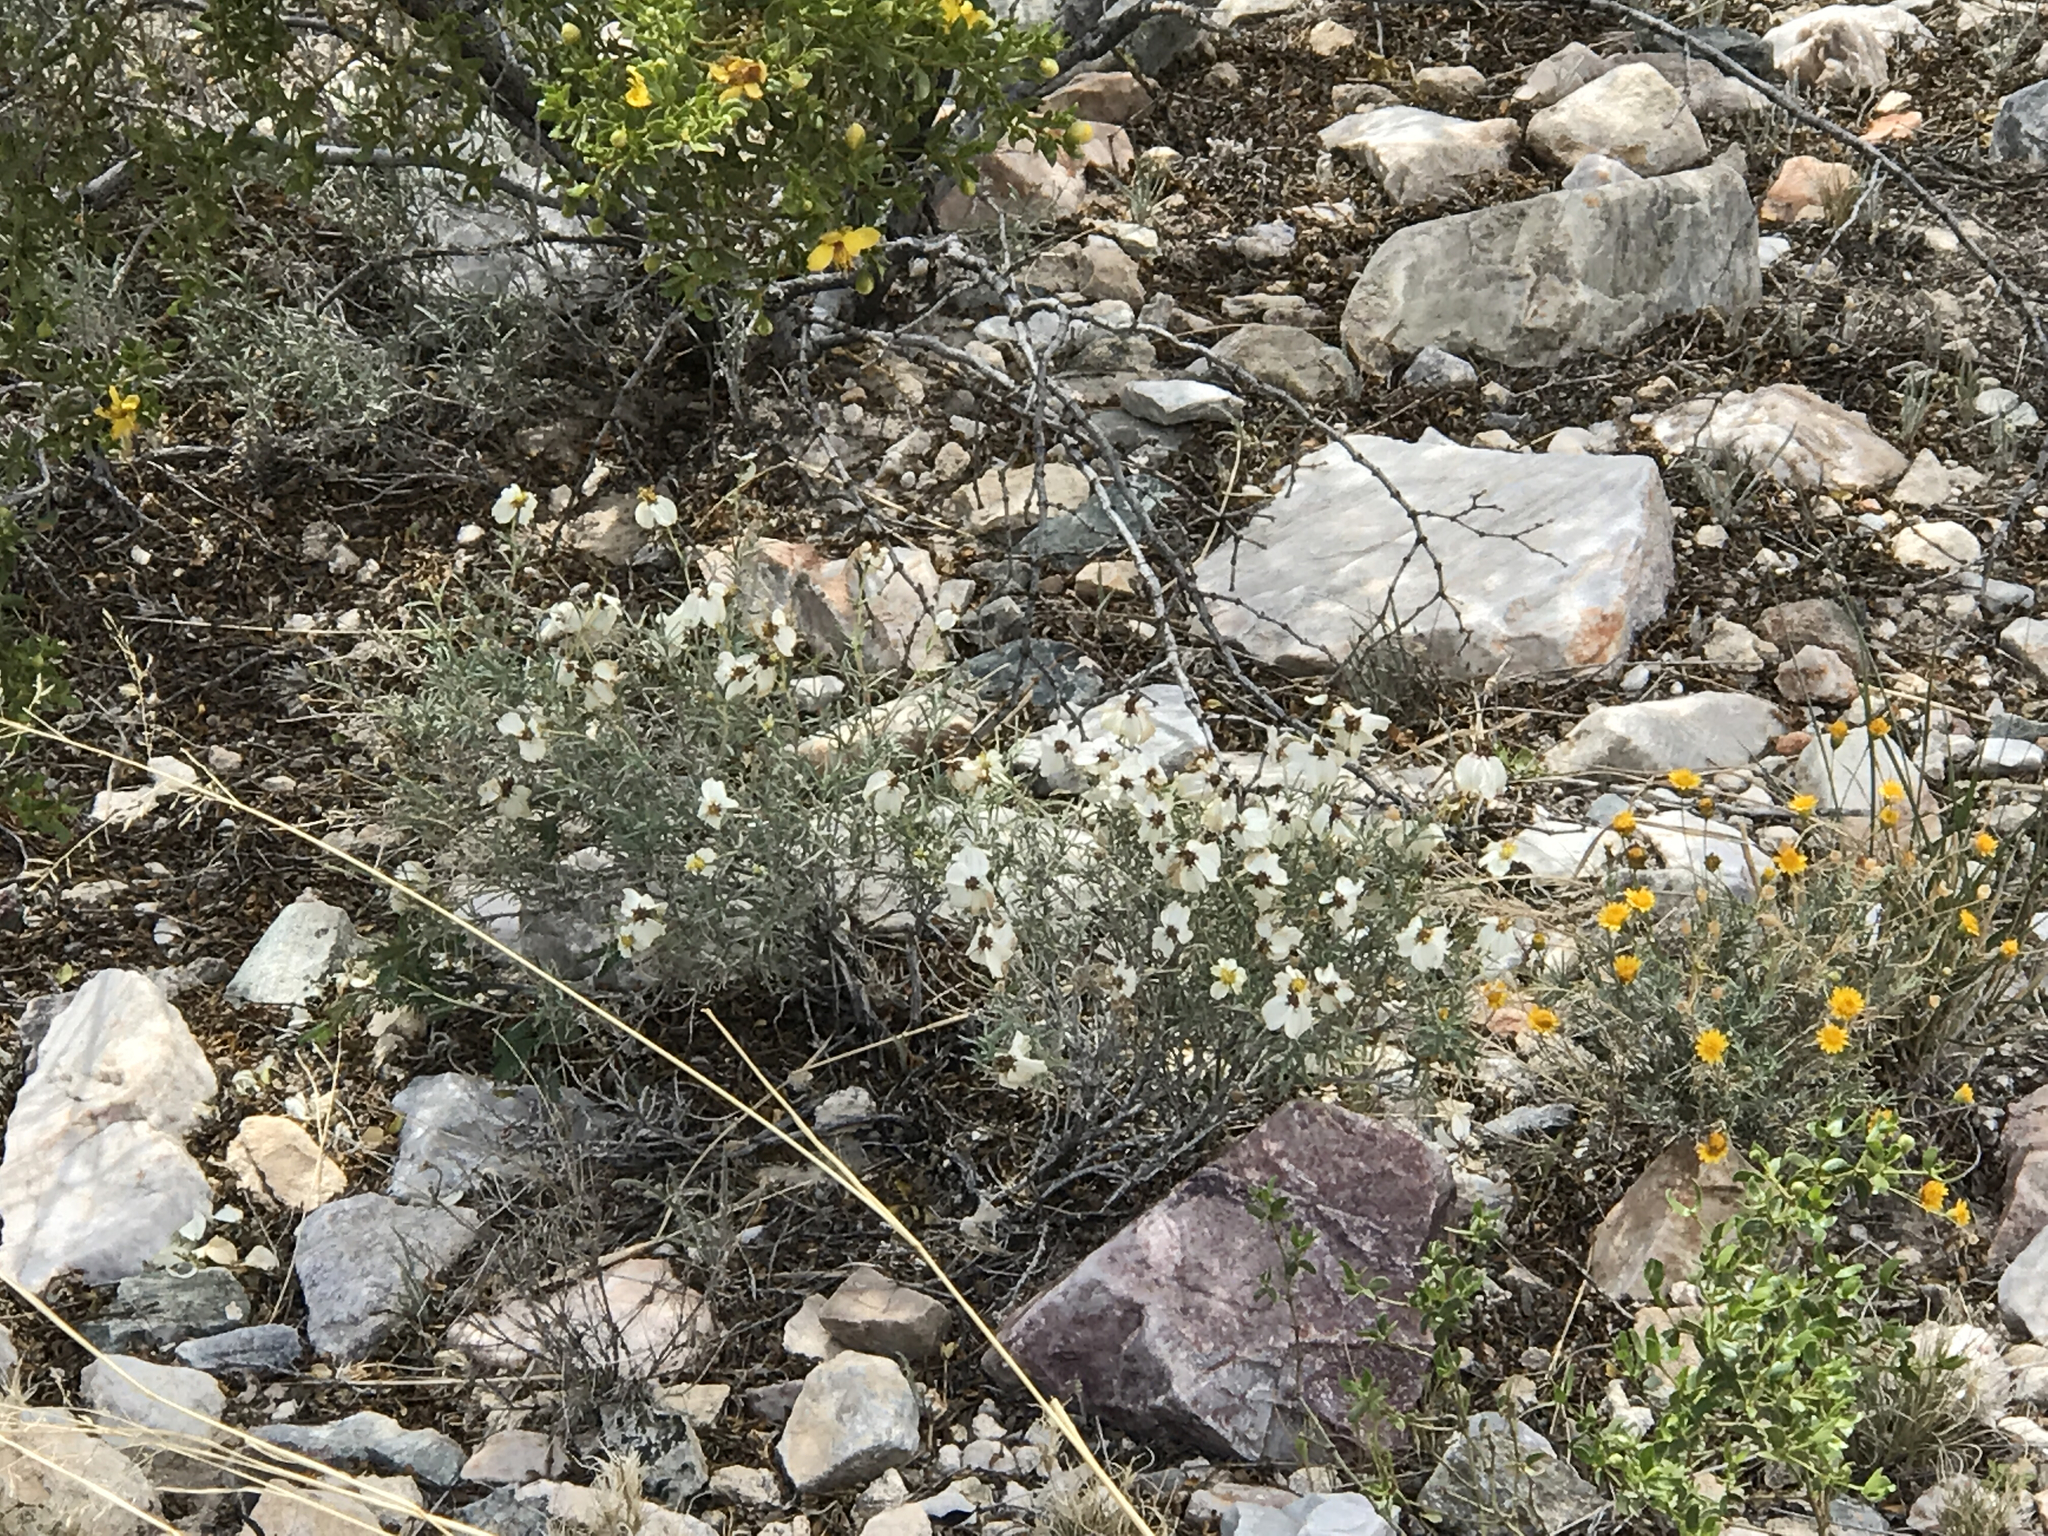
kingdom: Plantae
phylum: Tracheophyta
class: Magnoliopsida
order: Asterales
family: Asteraceae
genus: Zinnia
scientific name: Zinnia acerosa
